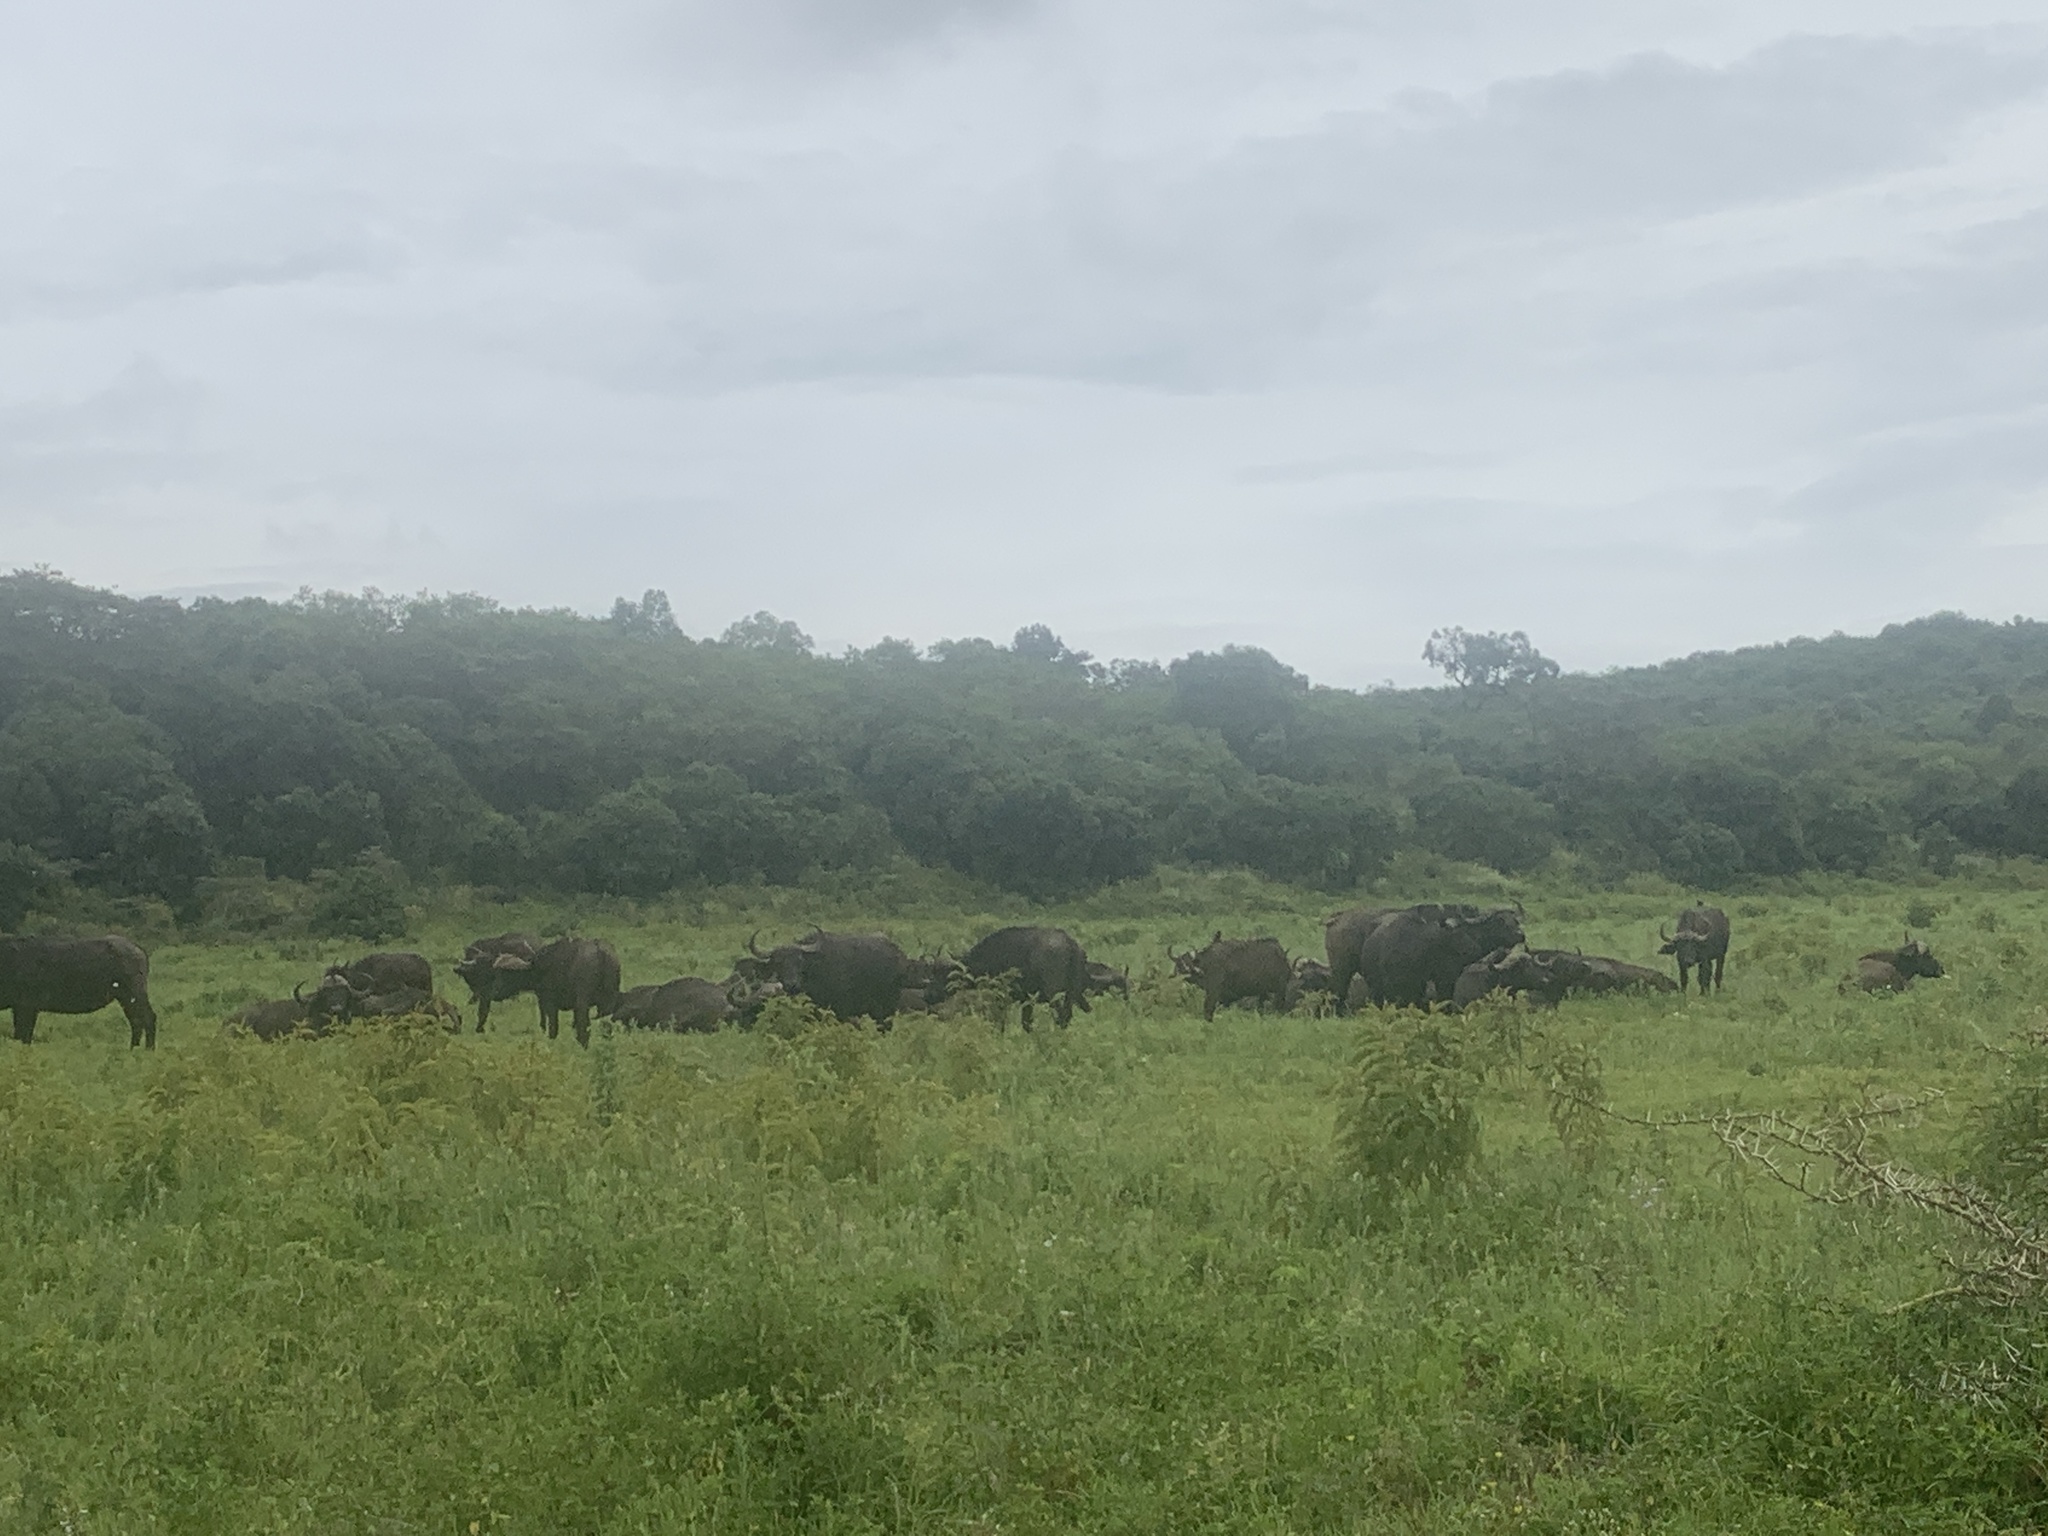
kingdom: Animalia
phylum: Chordata
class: Mammalia
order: Artiodactyla
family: Bovidae
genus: Syncerus
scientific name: Syncerus caffer
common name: African buffalo
